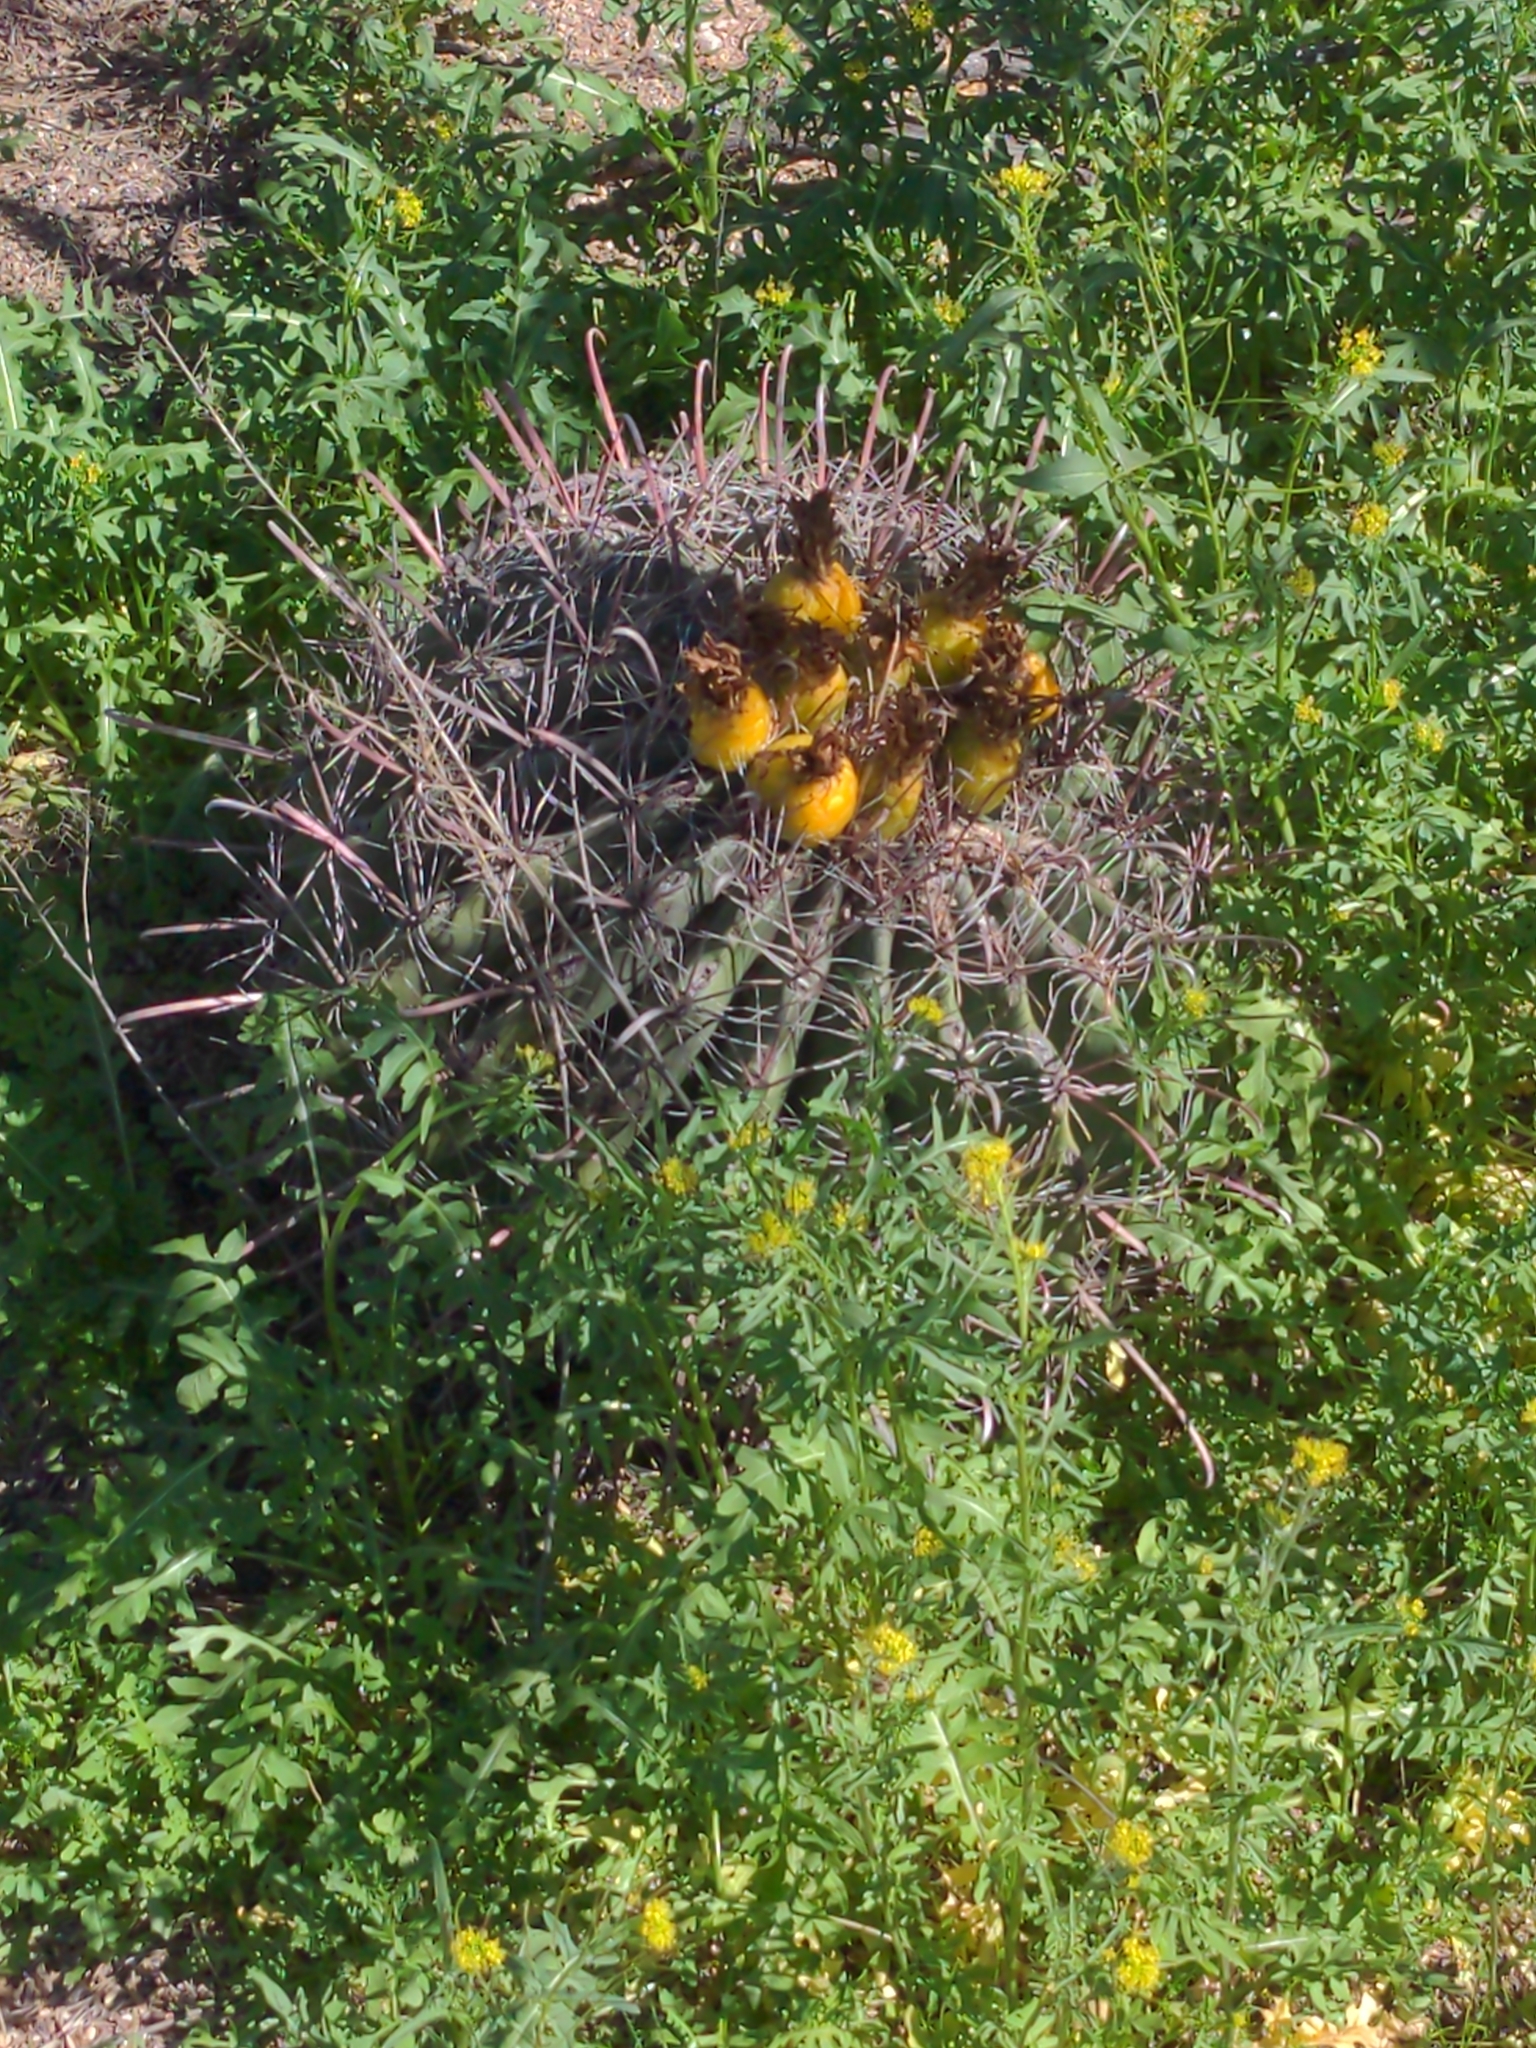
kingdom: Plantae
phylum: Tracheophyta
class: Magnoliopsida
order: Caryophyllales
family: Cactaceae
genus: Ferocactus
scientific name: Ferocactus wislizeni
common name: Candy barrel cactus
